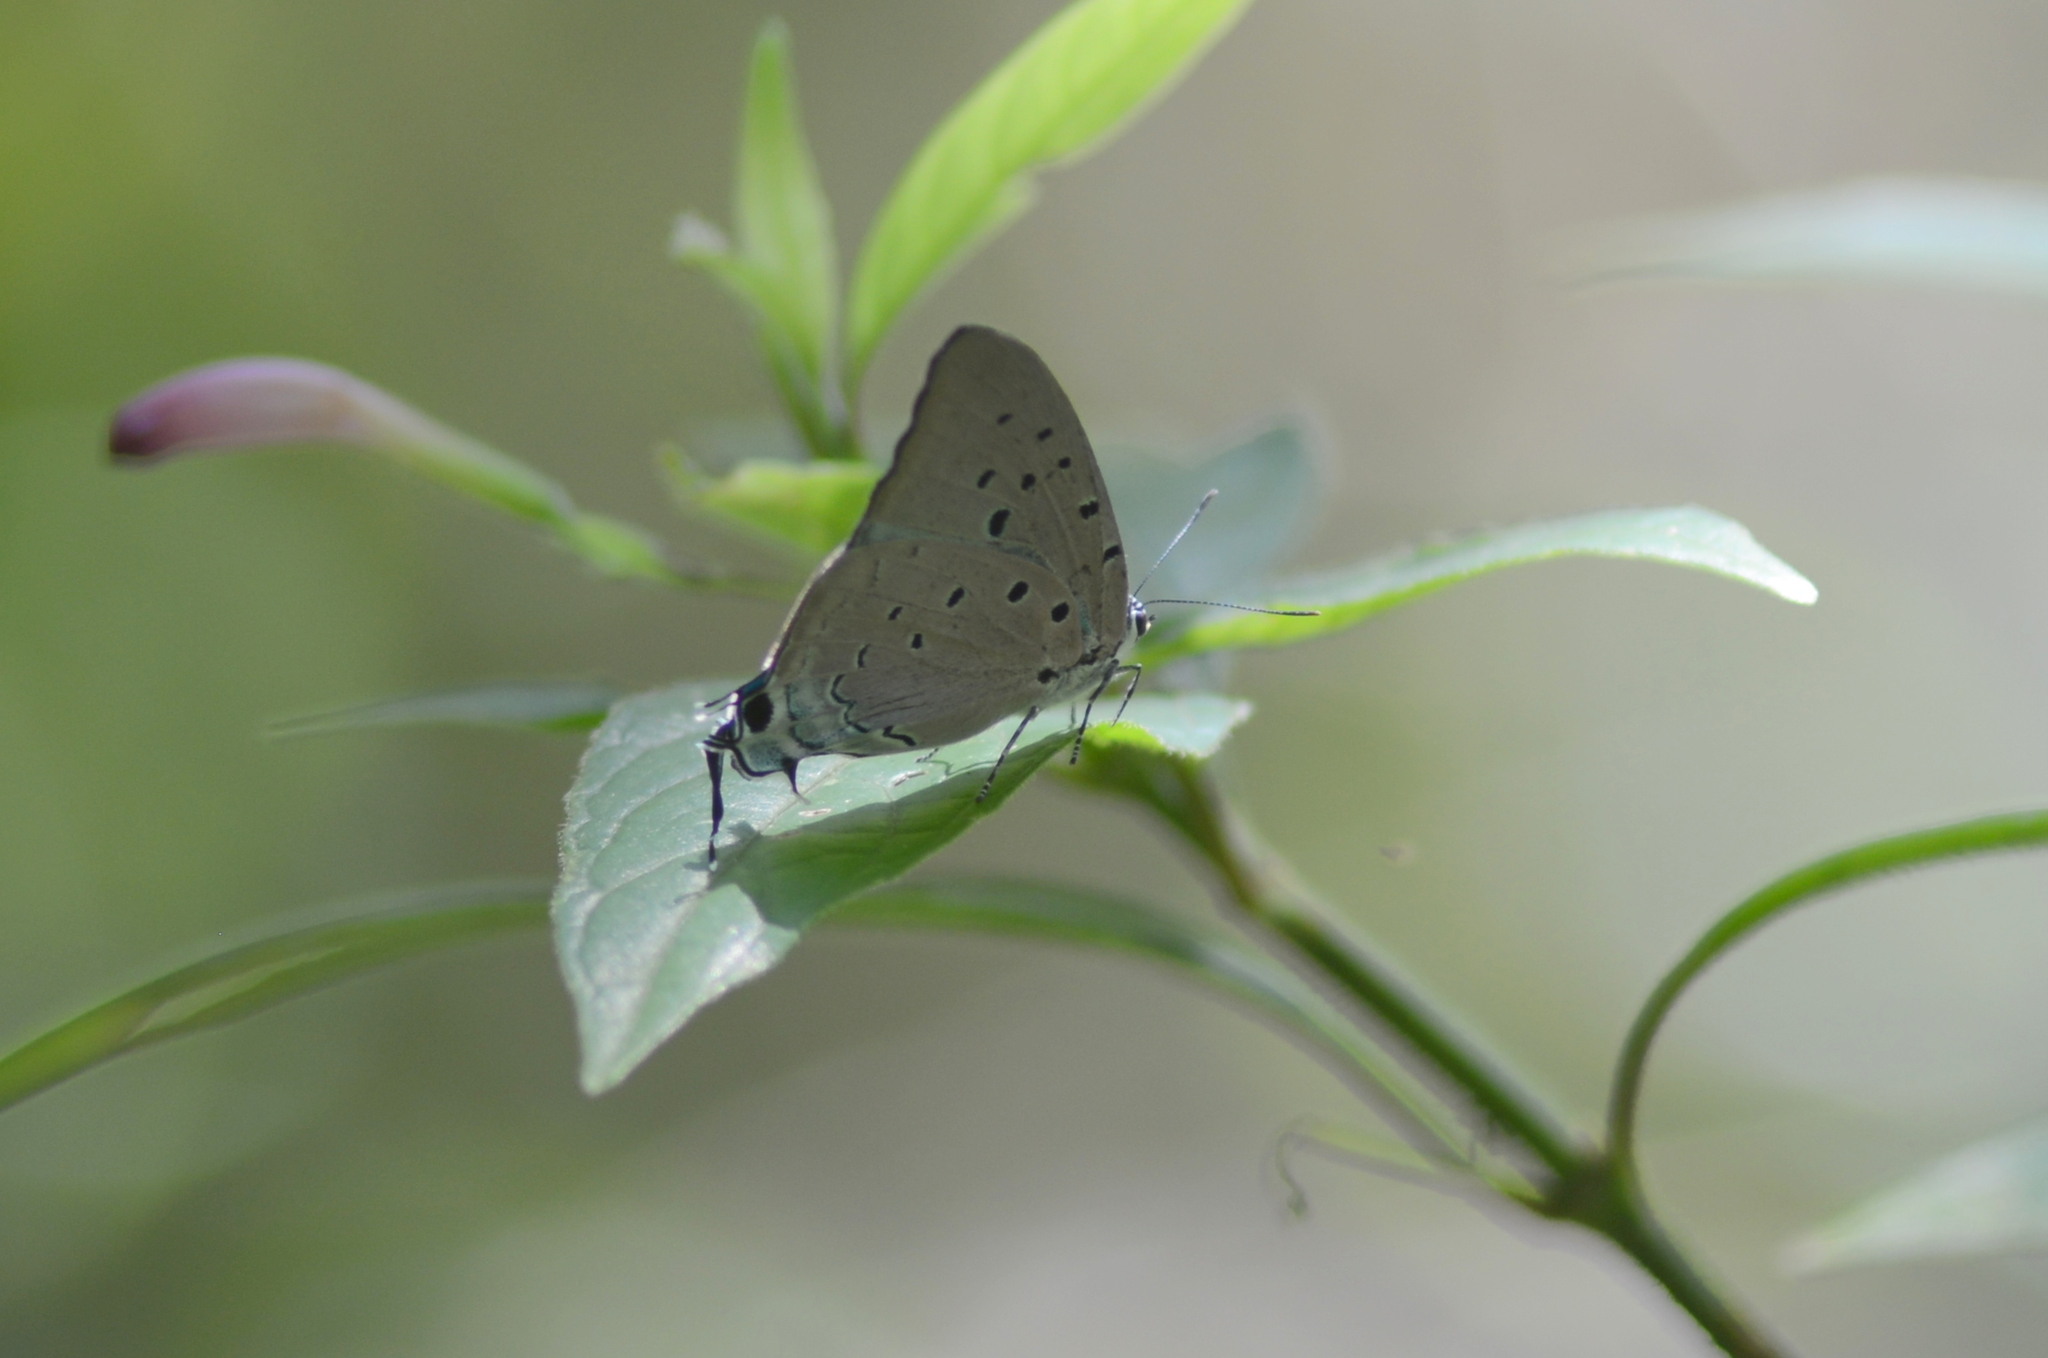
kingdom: Animalia
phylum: Arthropoda
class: Insecta
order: Lepidoptera
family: Lycaenidae
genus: Pseudolycaena
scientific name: Pseudolycaena marsyas
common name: Marsyas hairstreak
